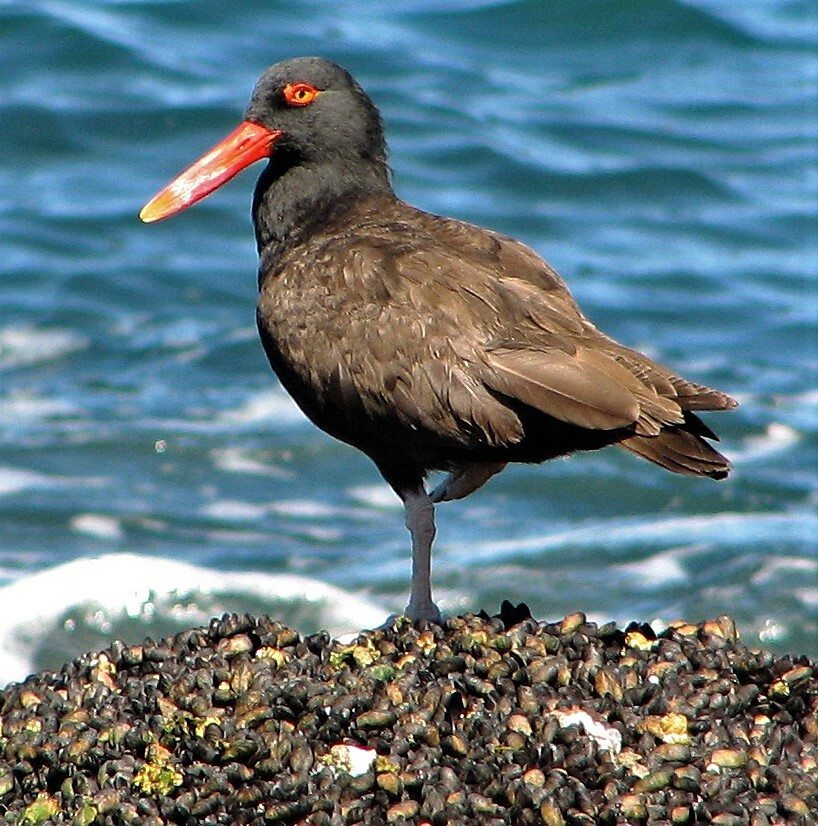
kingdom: Animalia
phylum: Chordata
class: Aves
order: Charadriiformes
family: Haematopodidae
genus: Haematopus
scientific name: Haematopus ater
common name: Blackish oystercatcher
